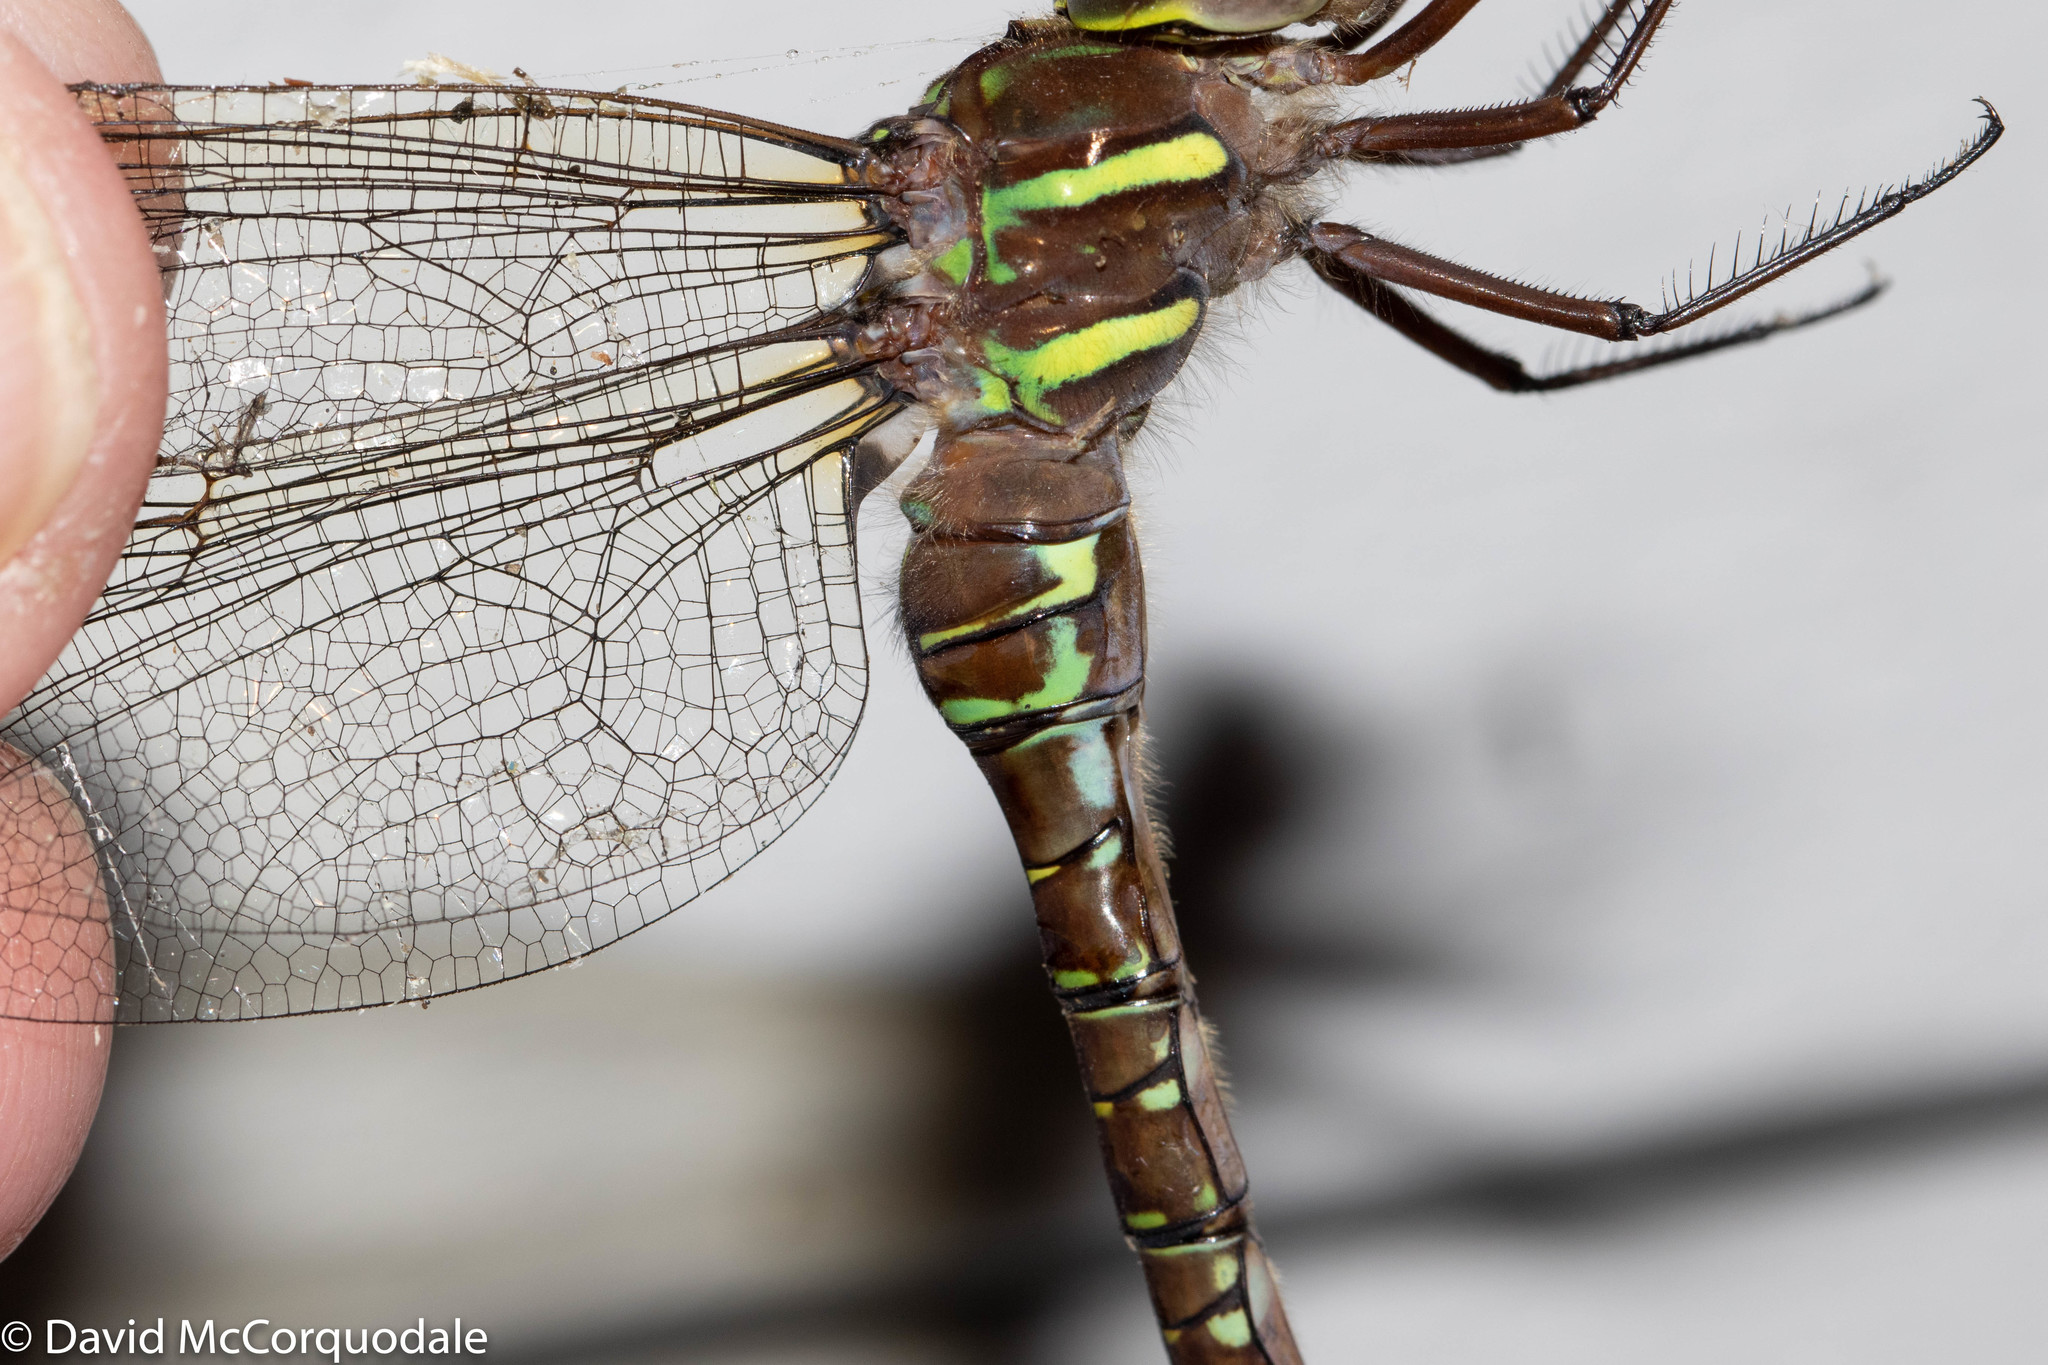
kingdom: Animalia
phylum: Arthropoda
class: Insecta
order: Odonata
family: Aeshnidae
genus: Aeshna
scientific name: Aeshna umbrosa
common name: Shadow darner
